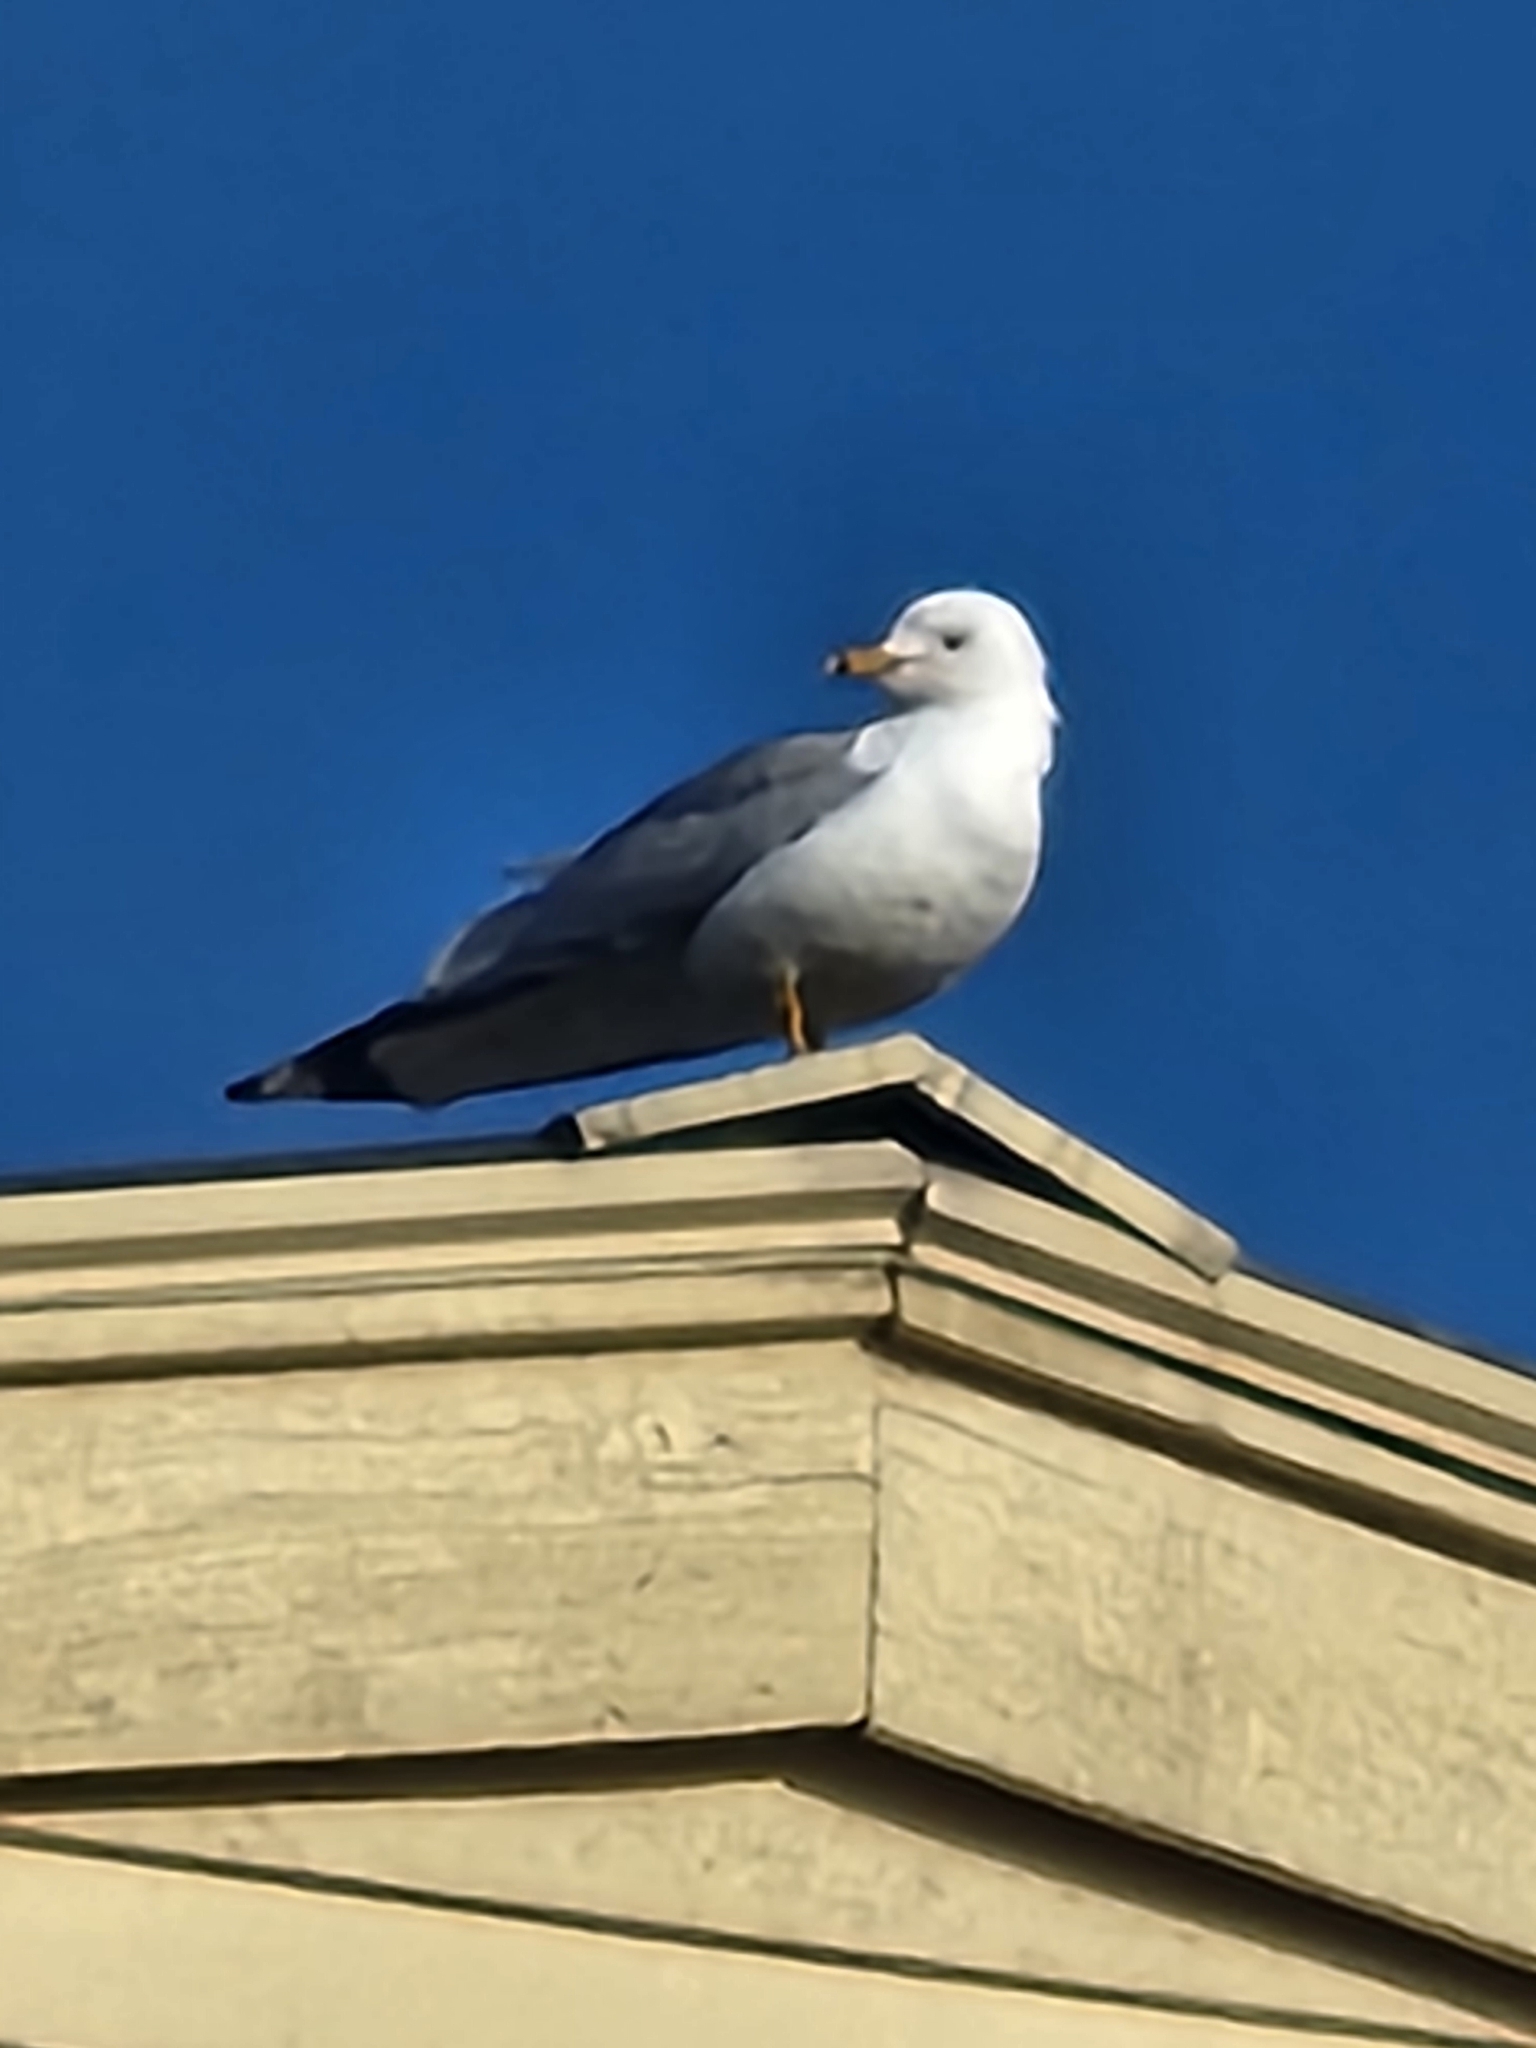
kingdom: Animalia
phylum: Chordata
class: Aves
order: Charadriiformes
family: Laridae
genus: Larus
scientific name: Larus delawarensis
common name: Ring-billed gull
